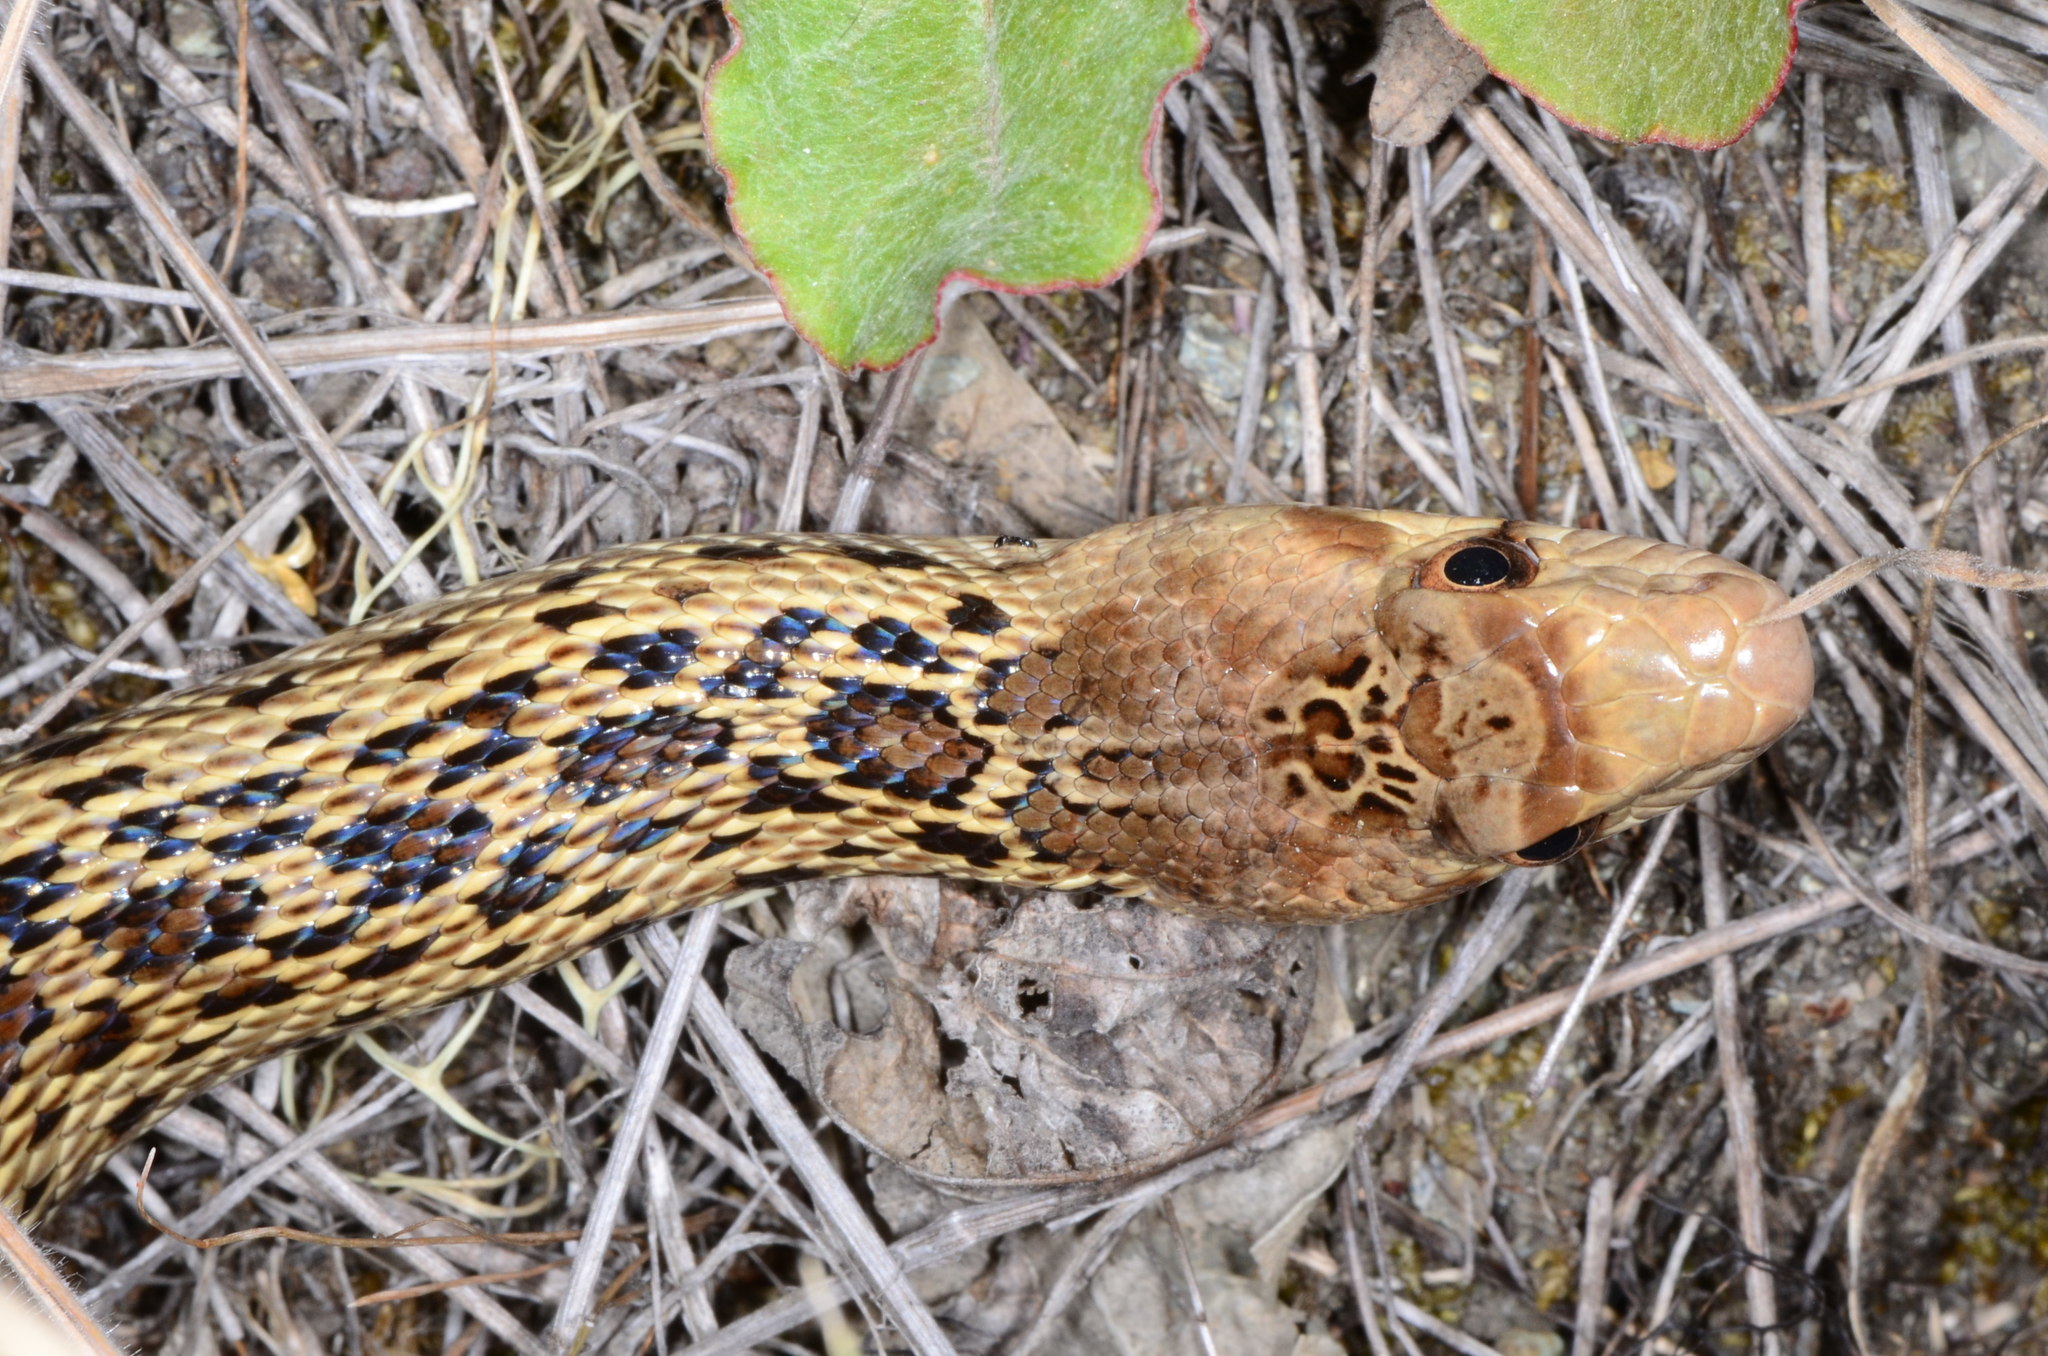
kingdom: Animalia
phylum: Chordata
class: Squamata
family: Colubridae
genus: Pituophis
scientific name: Pituophis catenifer
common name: Gopher snake
